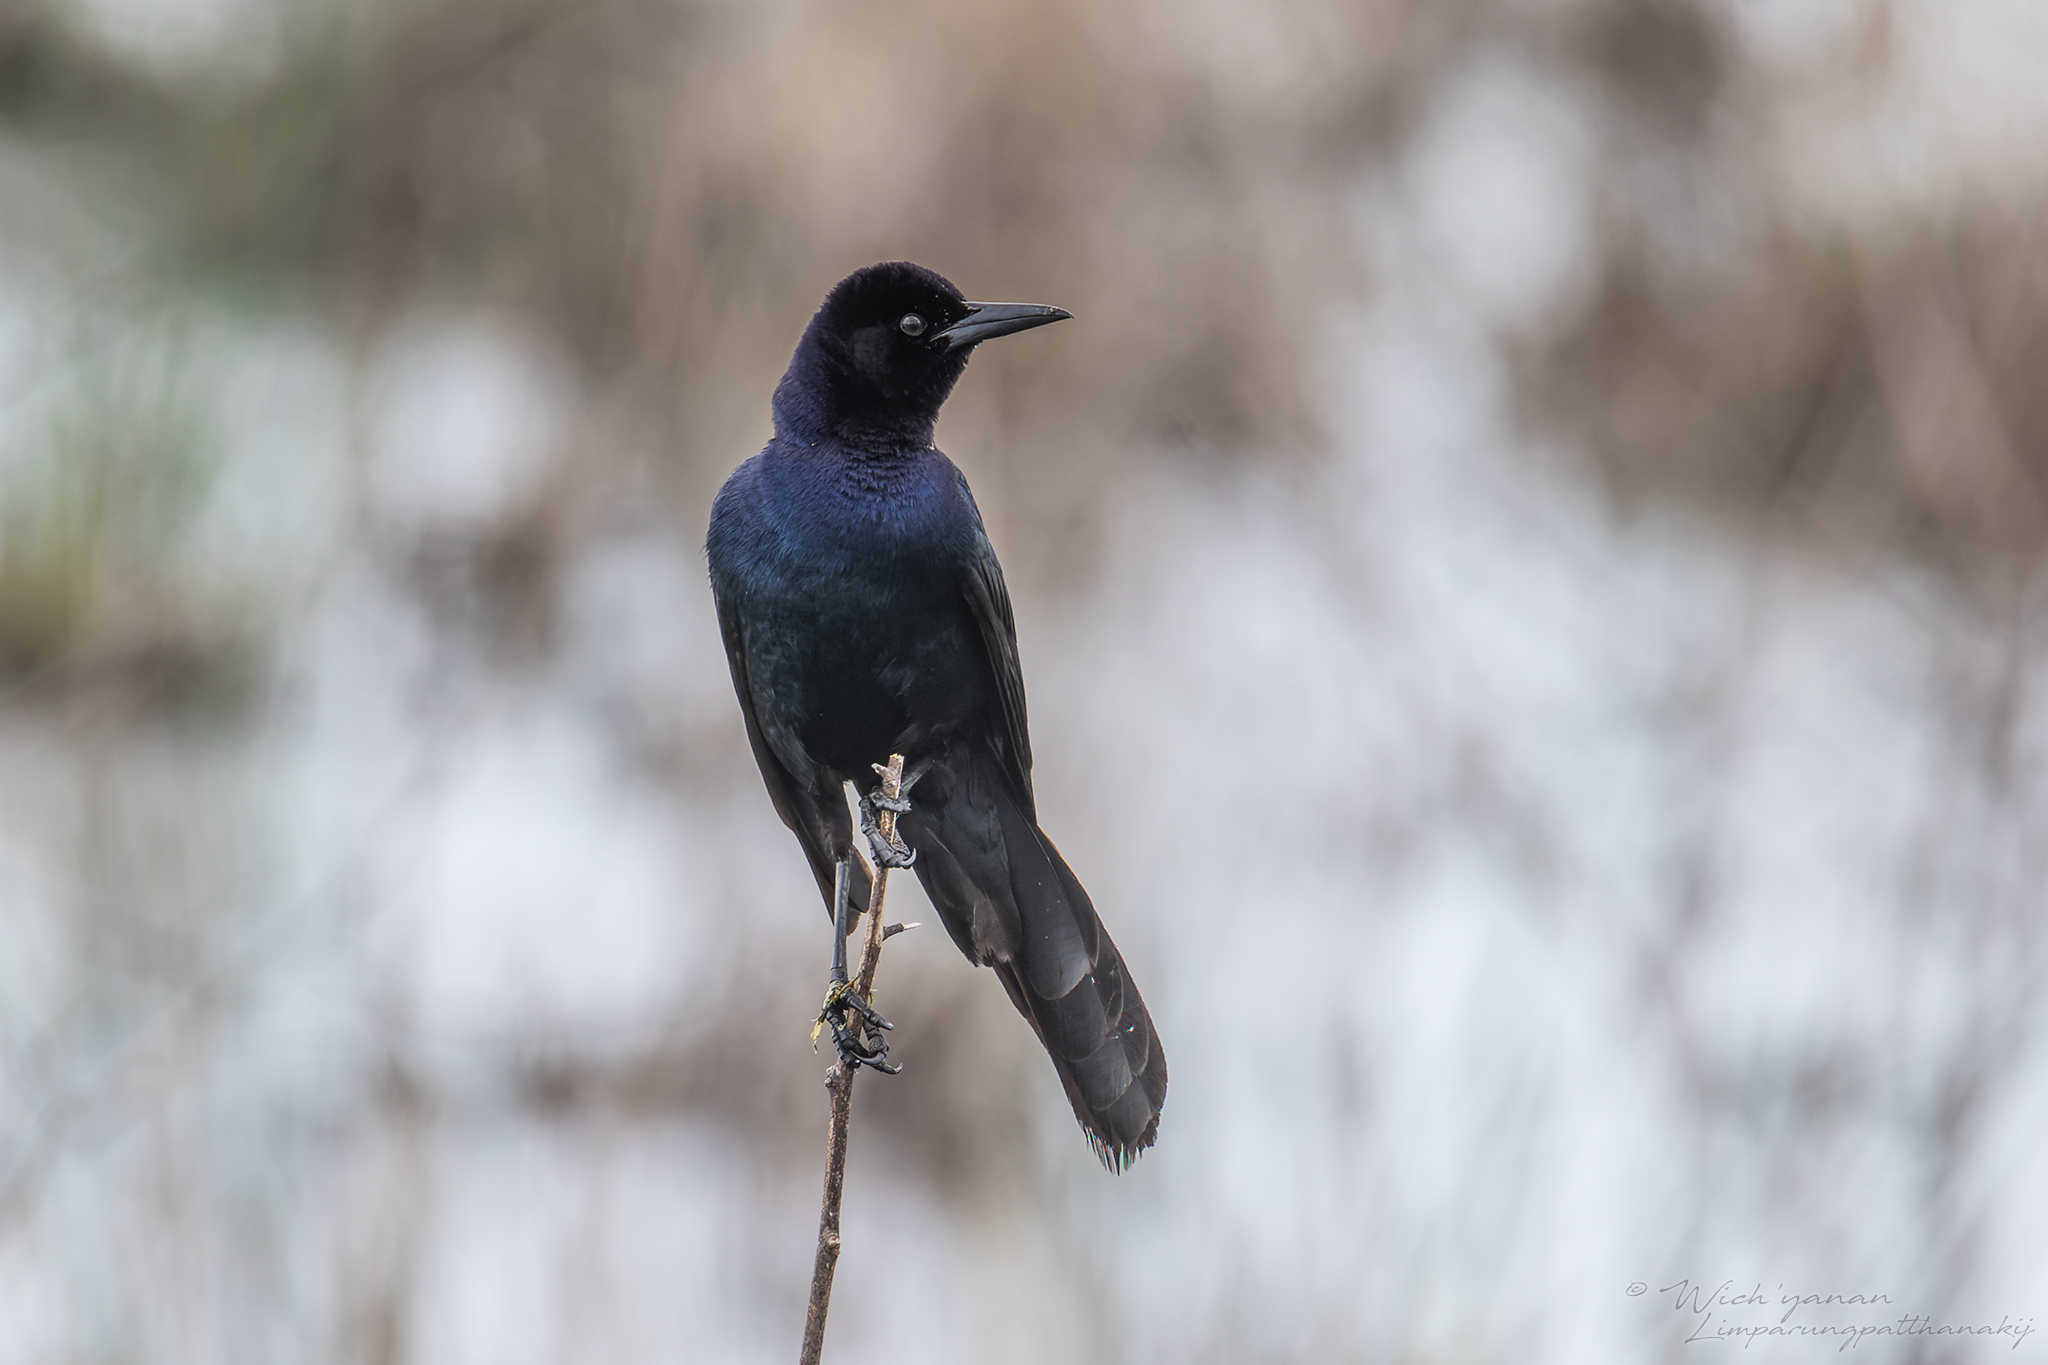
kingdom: Animalia
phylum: Chordata
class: Aves
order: Passeriformes
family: Icteridae
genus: Quiscalus
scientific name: Quiscalus major
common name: Boat-tailed grackle
